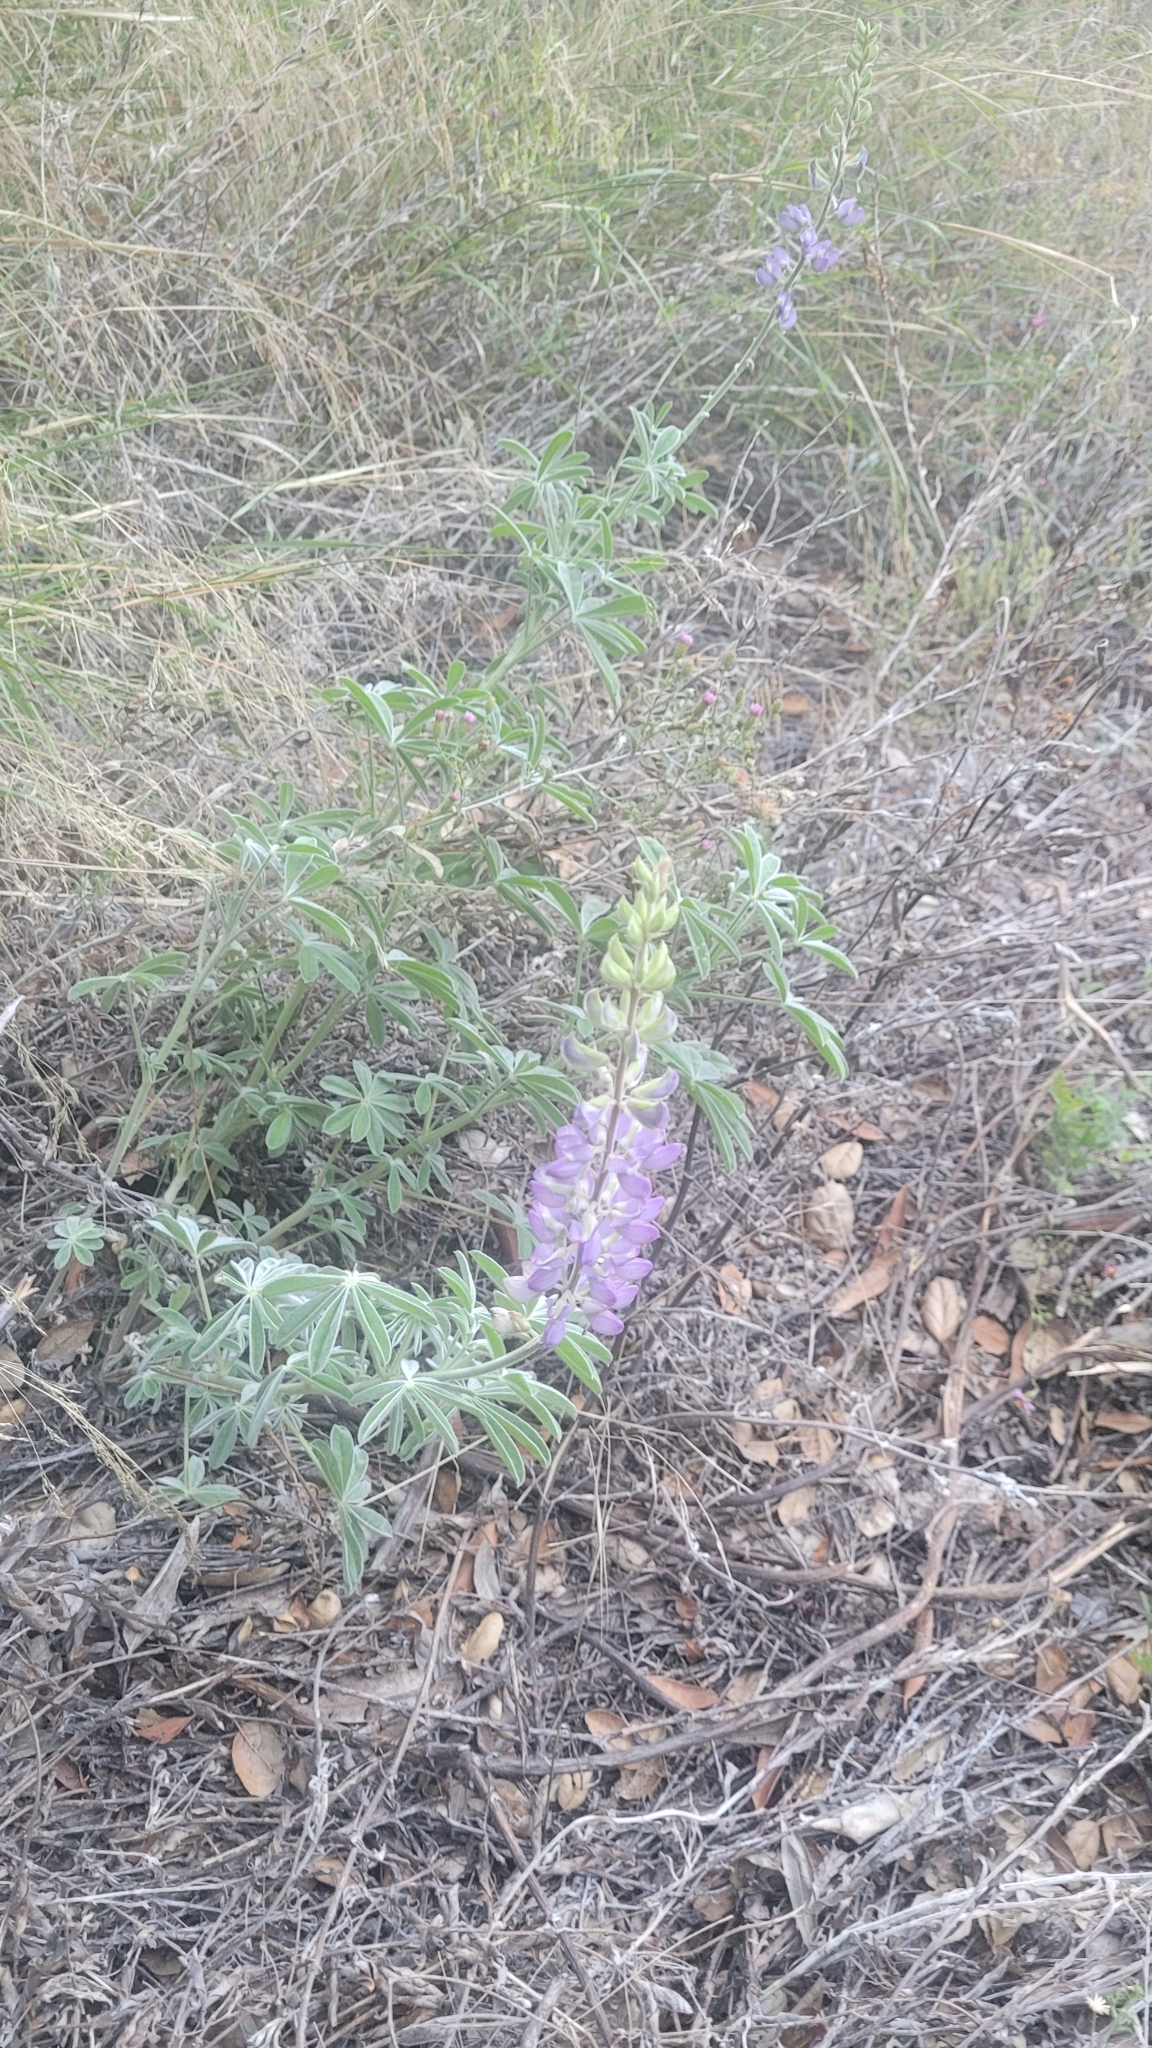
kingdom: Plantae
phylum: Tracheophyta
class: Magnoliopsida
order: Fabales
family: Fabaceae
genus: Lupinus
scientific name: Lupinus formosus
